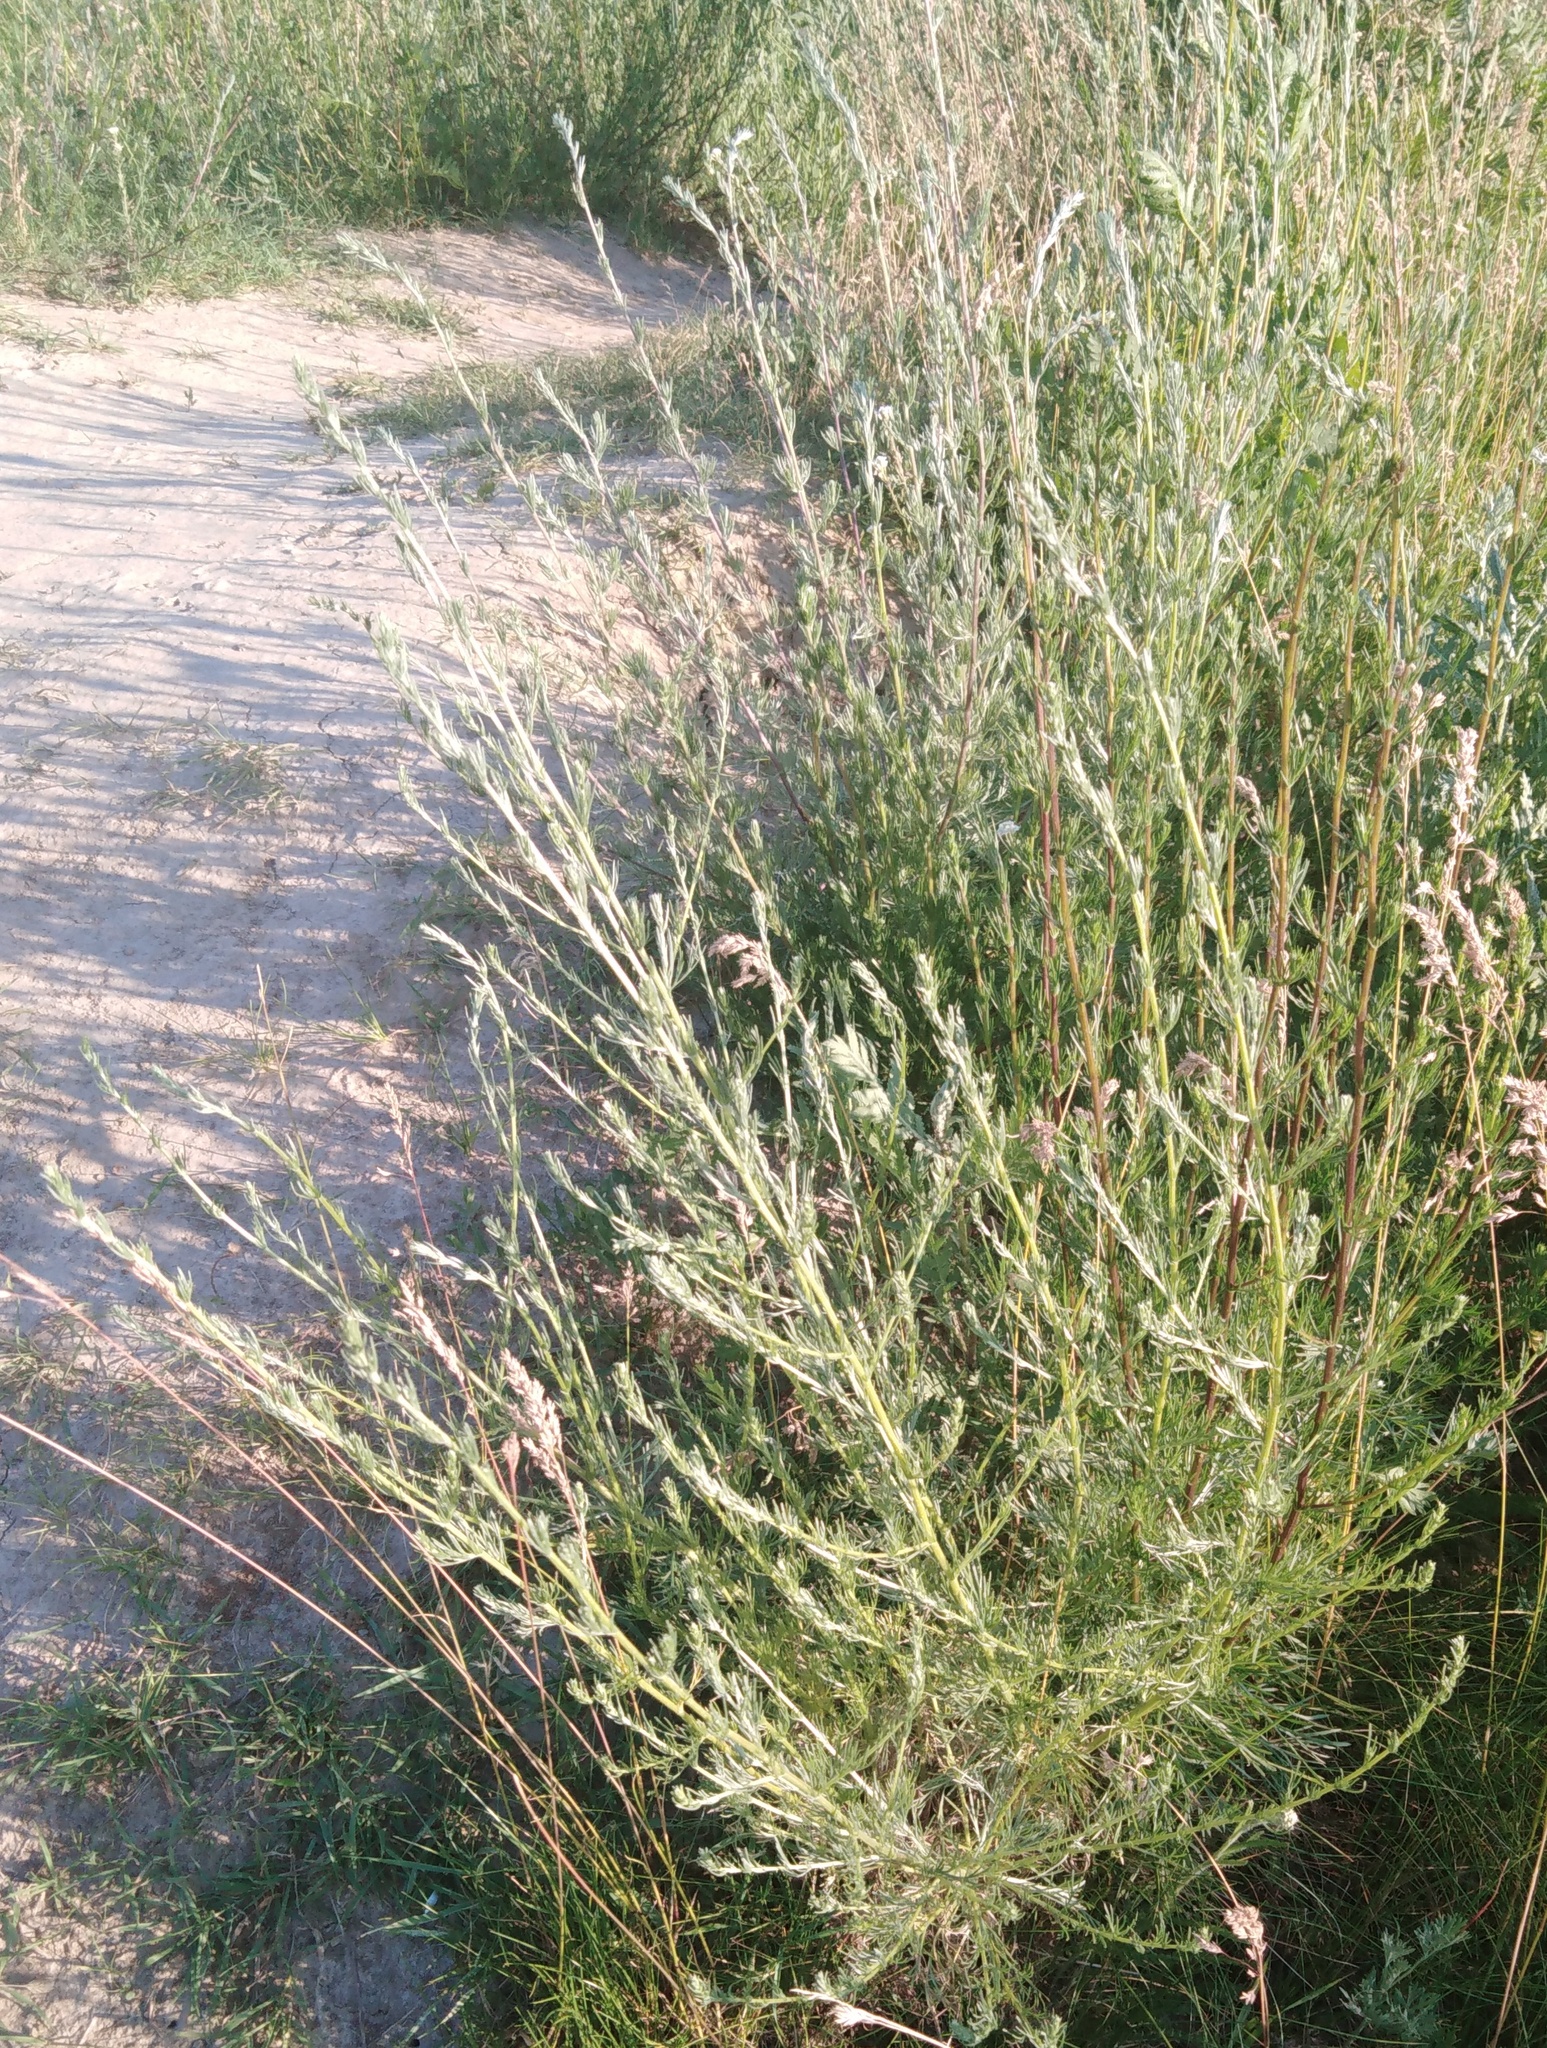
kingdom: Plantae
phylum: Tracheophyta
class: Magnoliopsida
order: Asterales
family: Asteraceae
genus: Artemisia
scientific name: Artemisia campestris
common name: Field wormwood
